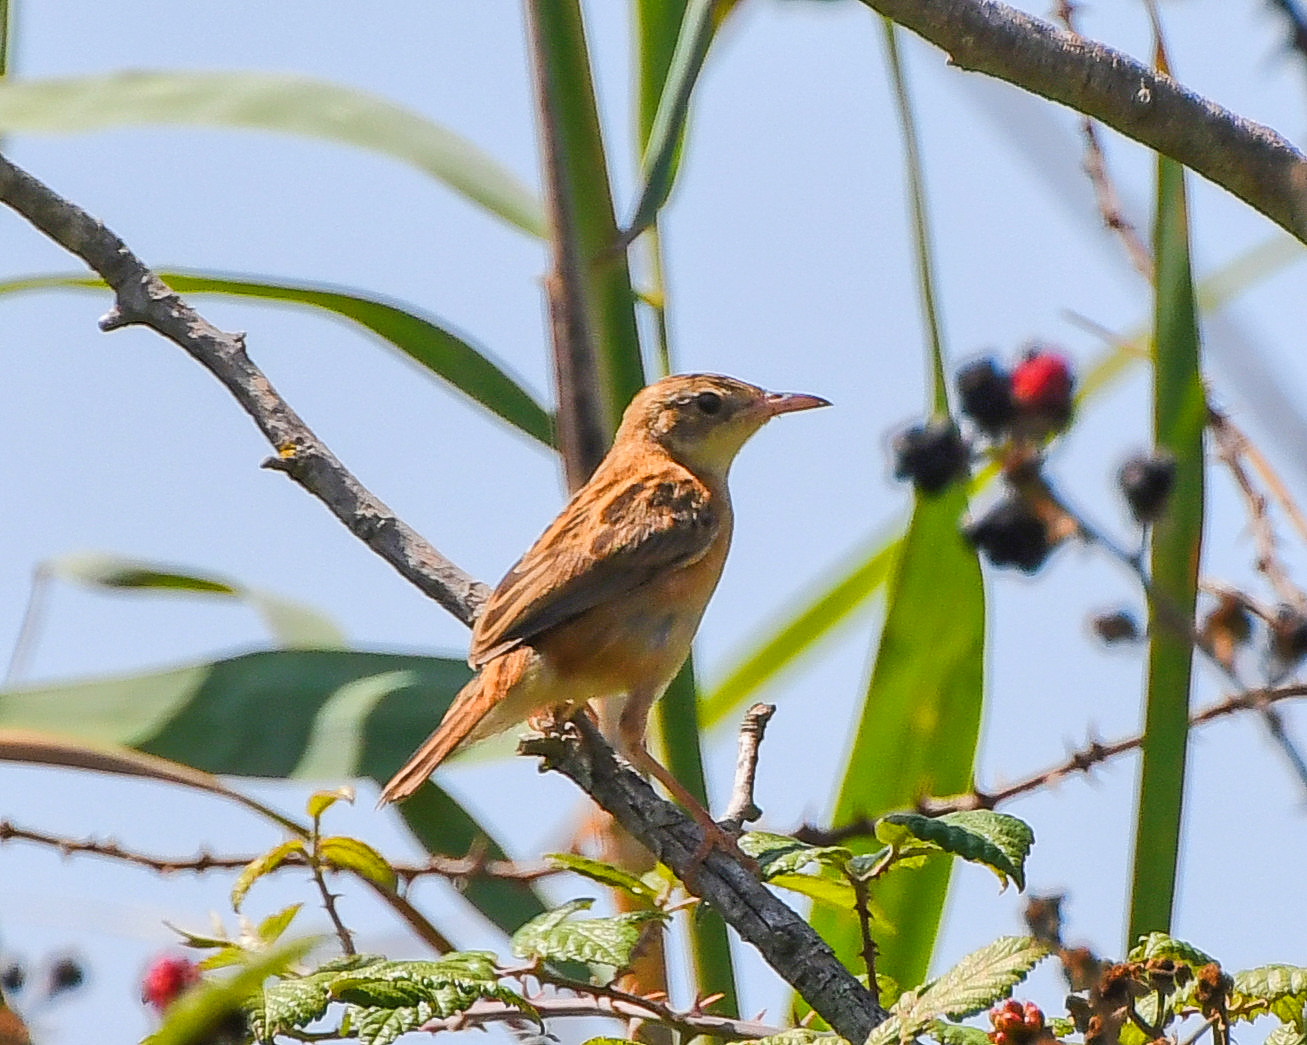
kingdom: Animalia
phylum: Chordata
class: Aves
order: Passeriformes
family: Cisticolidae
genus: Cisticola
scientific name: Cisticola juncidis
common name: Zitting cisticola
